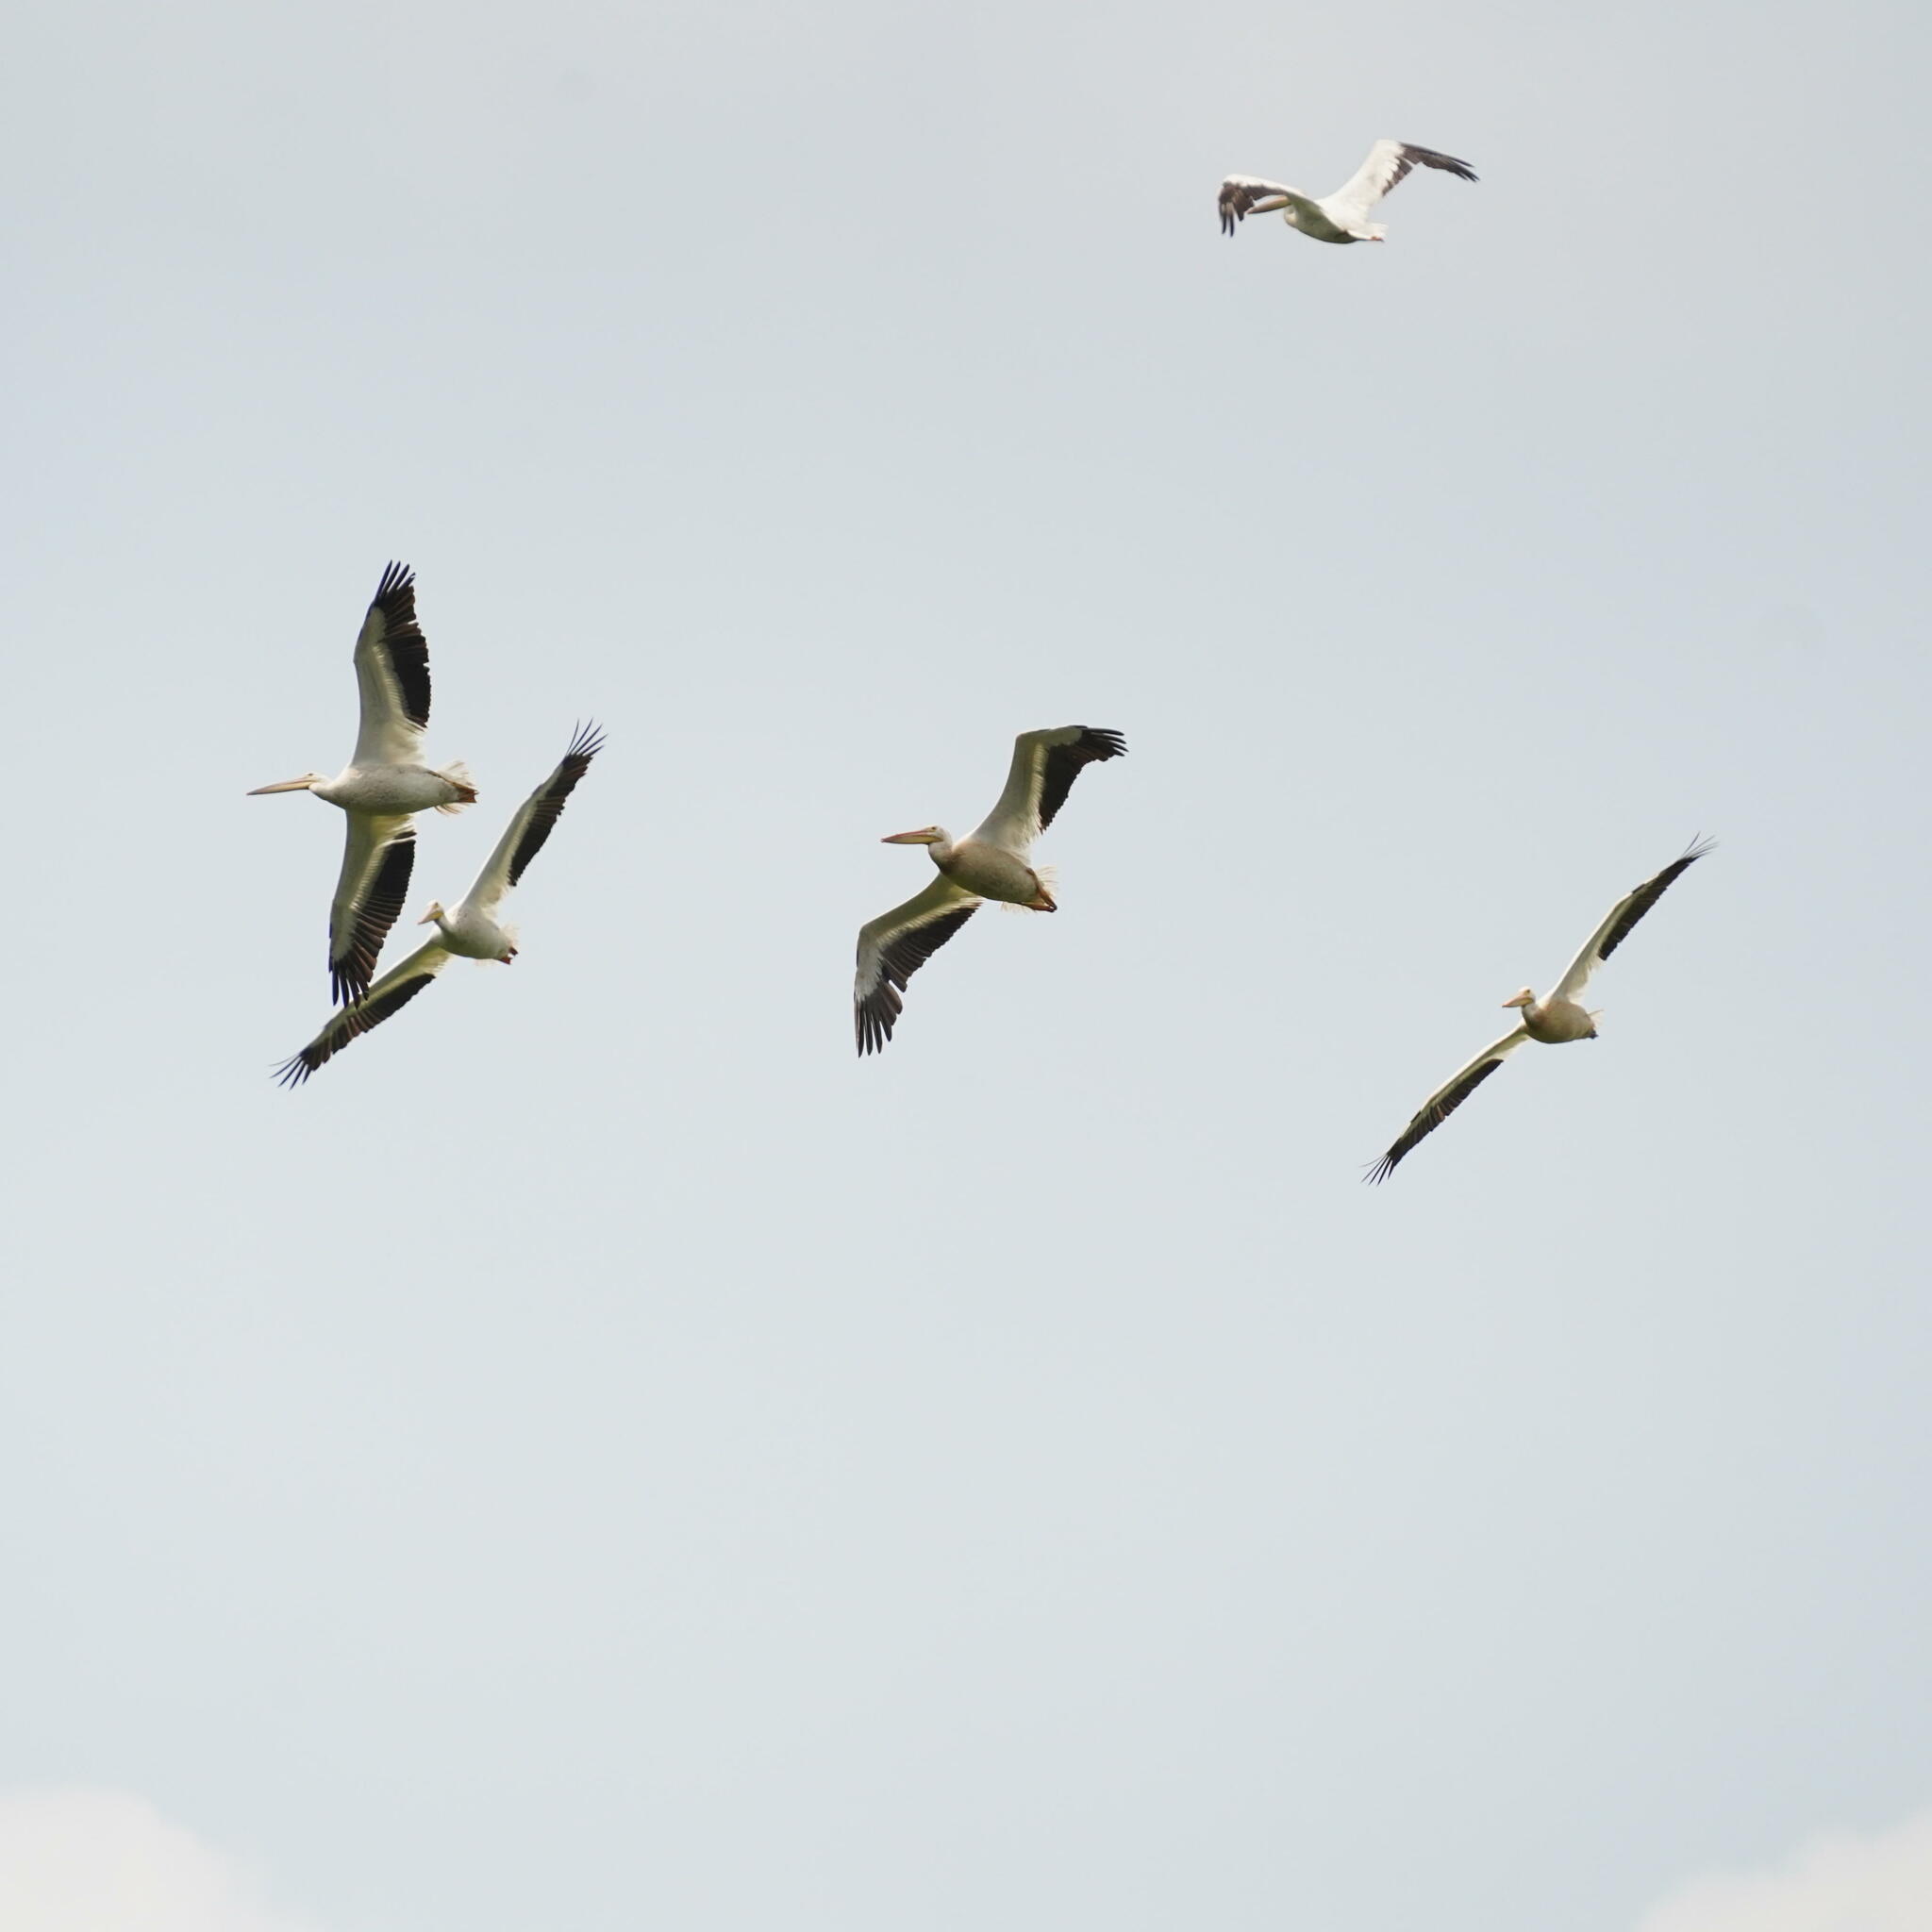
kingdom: Animalia
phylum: Chordata
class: Aves
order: Pelecaniformes
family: Pelecanidae
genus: Pelecanus
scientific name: Pelecanus erythrorhynchos
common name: American white pelican
